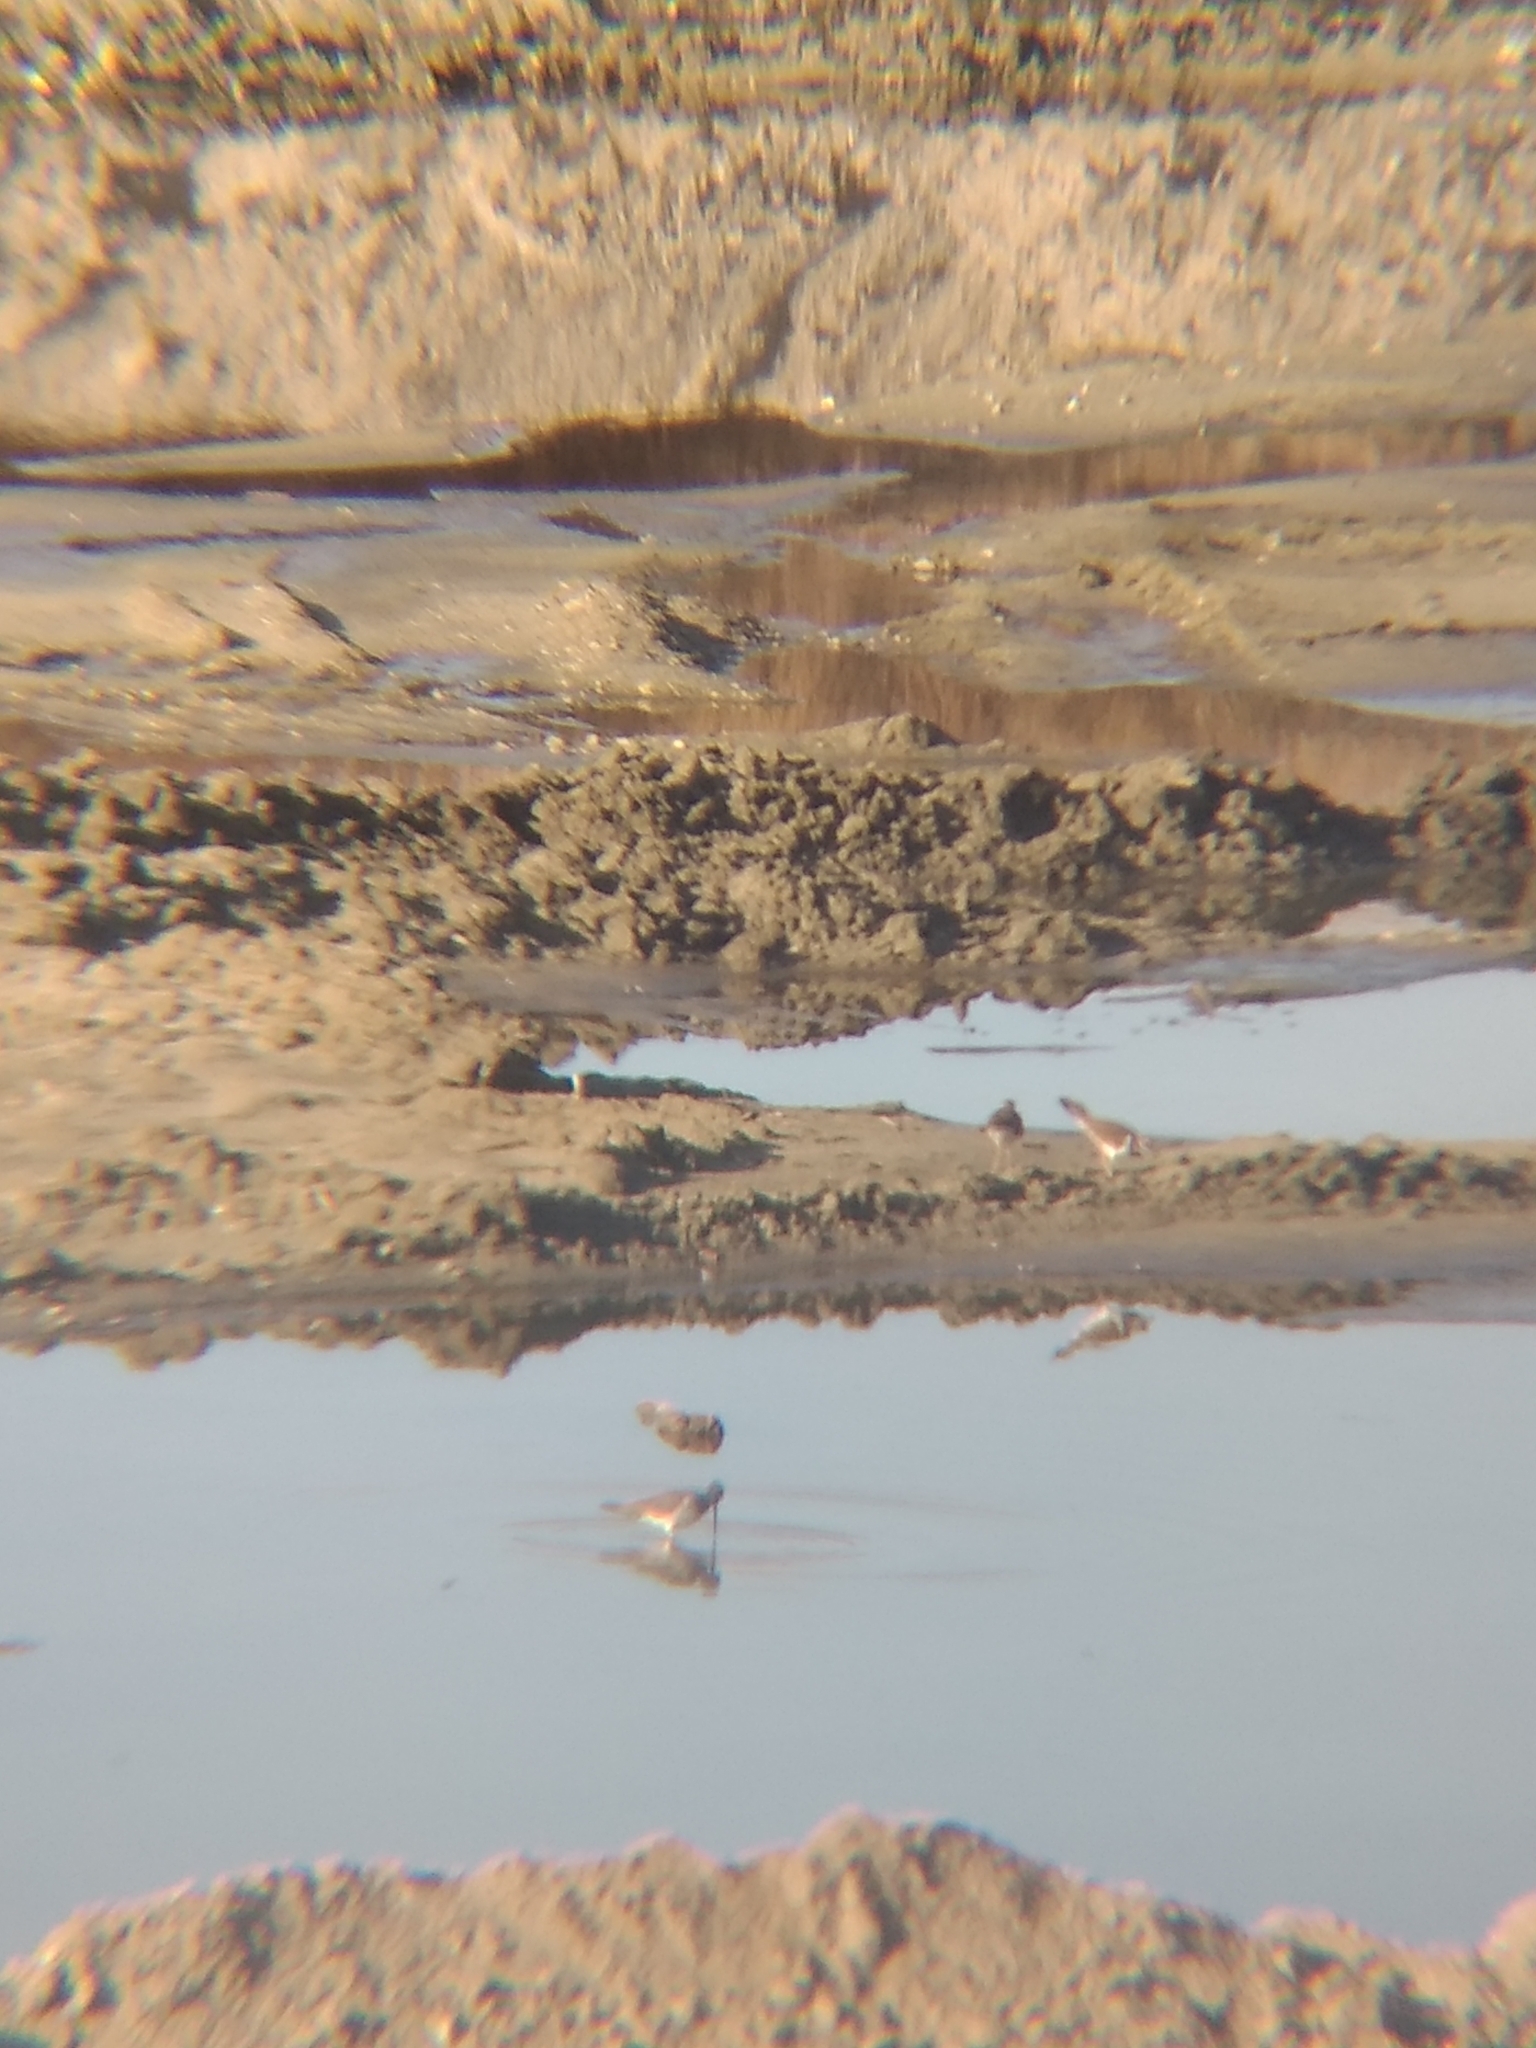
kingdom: Animalia
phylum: Chordata
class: Aves
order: Charadriiformes
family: Scolopacidae
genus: Tringa
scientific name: Tringa melanoleuca
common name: Greater yellowlegs
